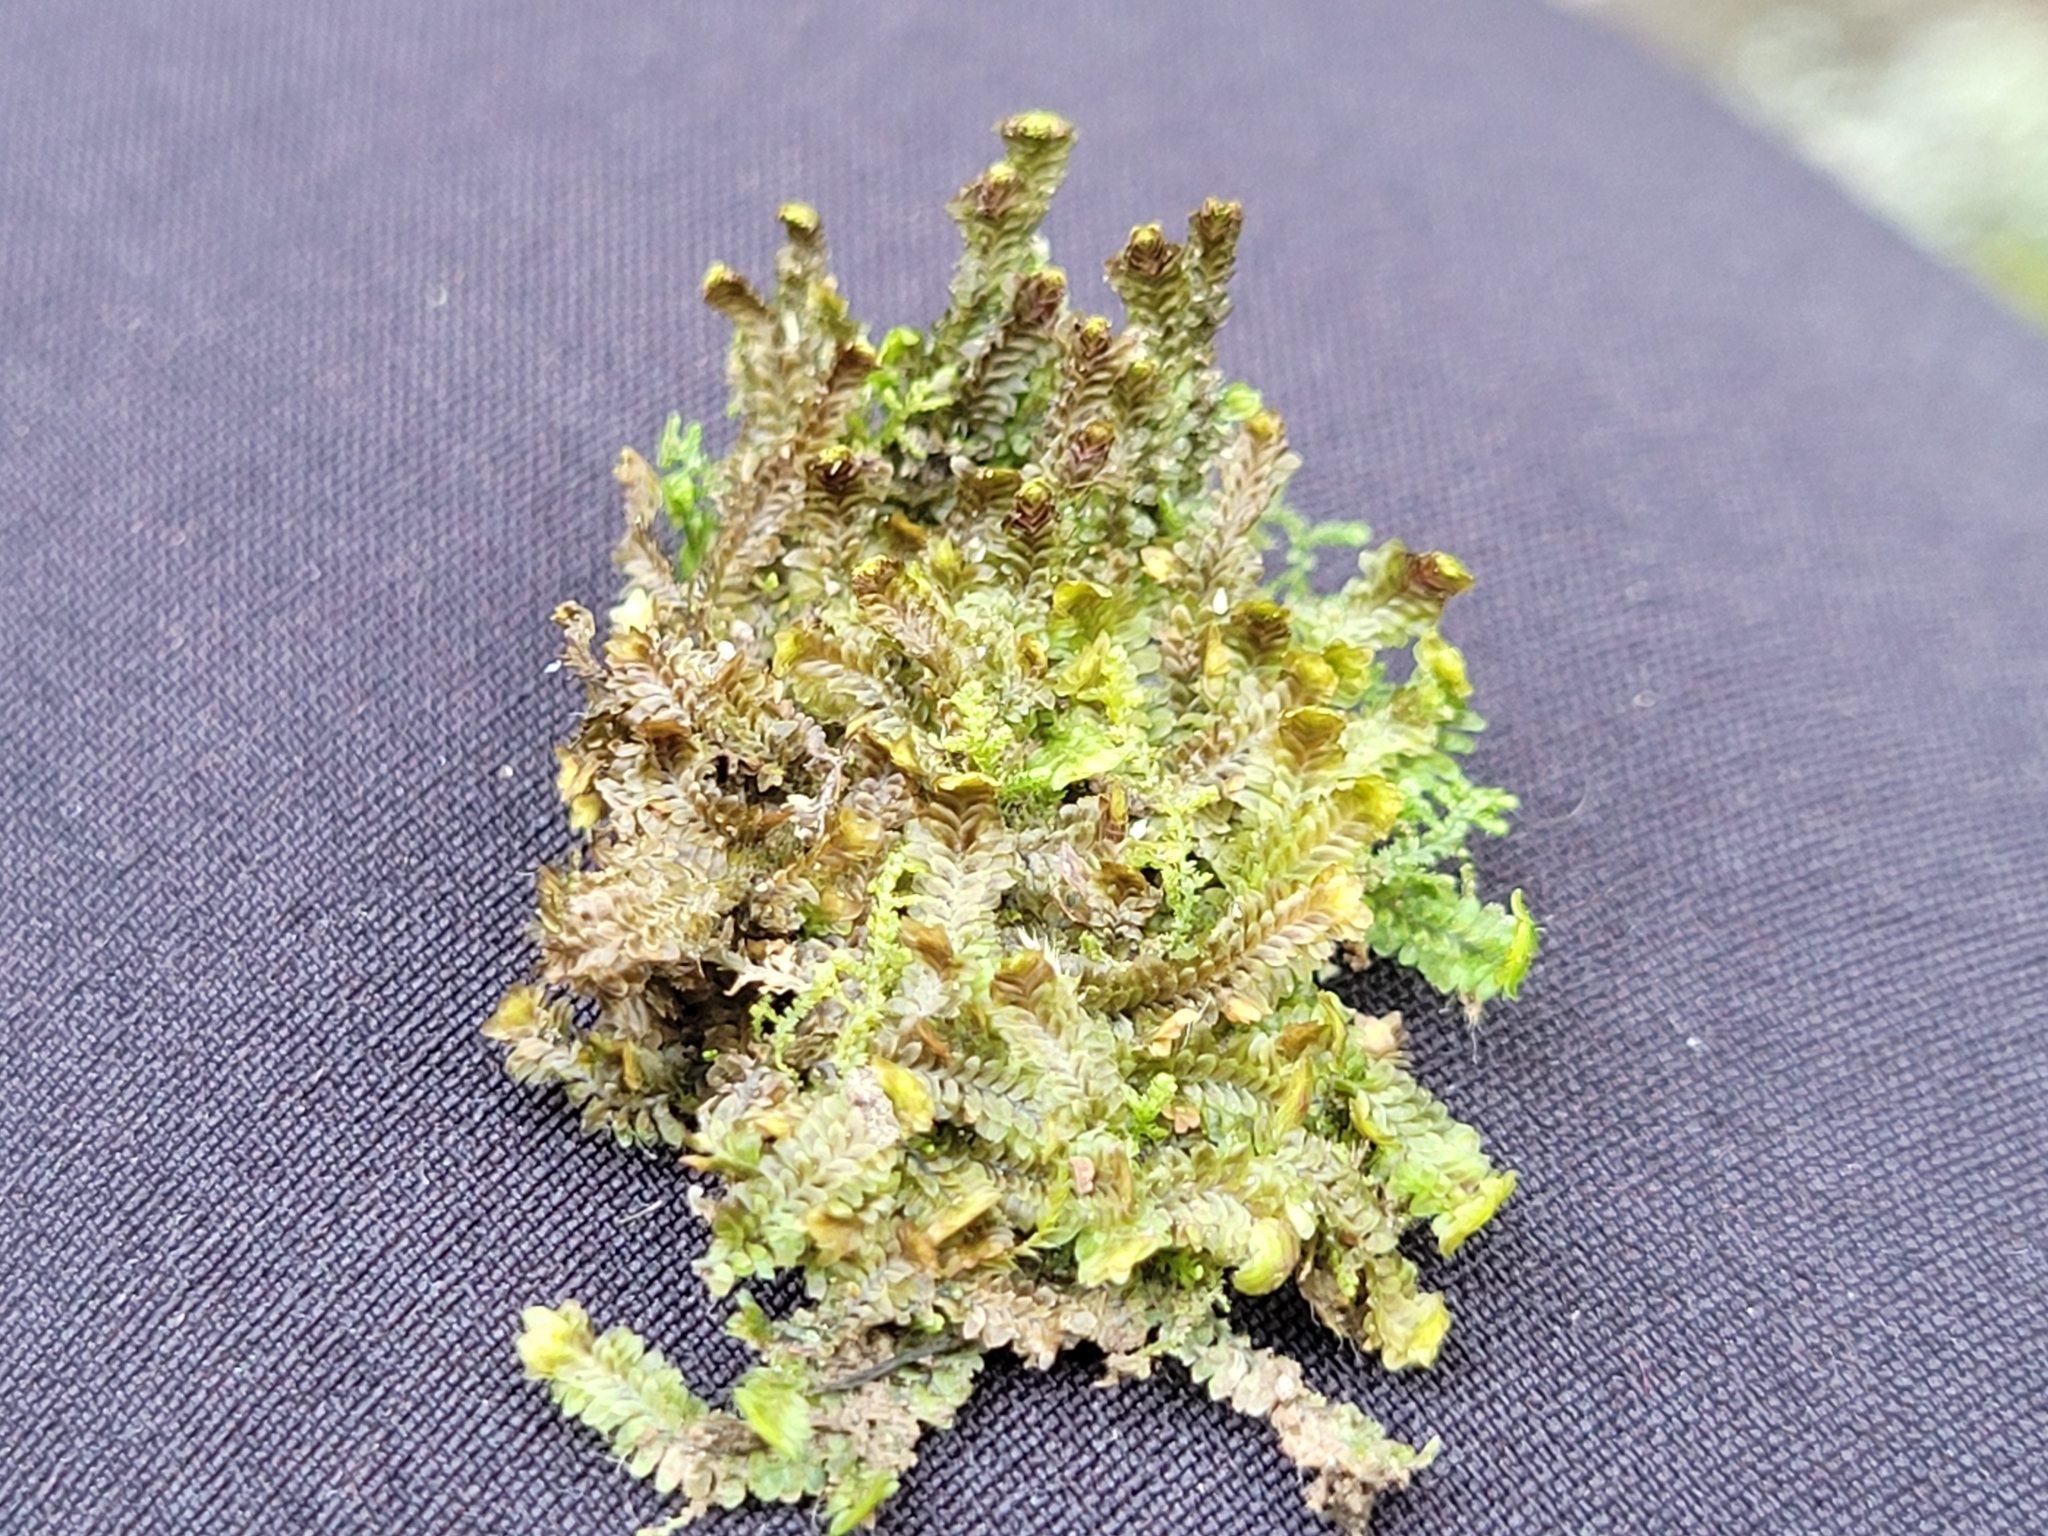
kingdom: Plantae
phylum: Marchantiophyta
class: Jungermanniopsida
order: Jungermanniales
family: Scapaniaceae
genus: Diplophyllum
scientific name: Diplophyllum albicans
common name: White earwort
